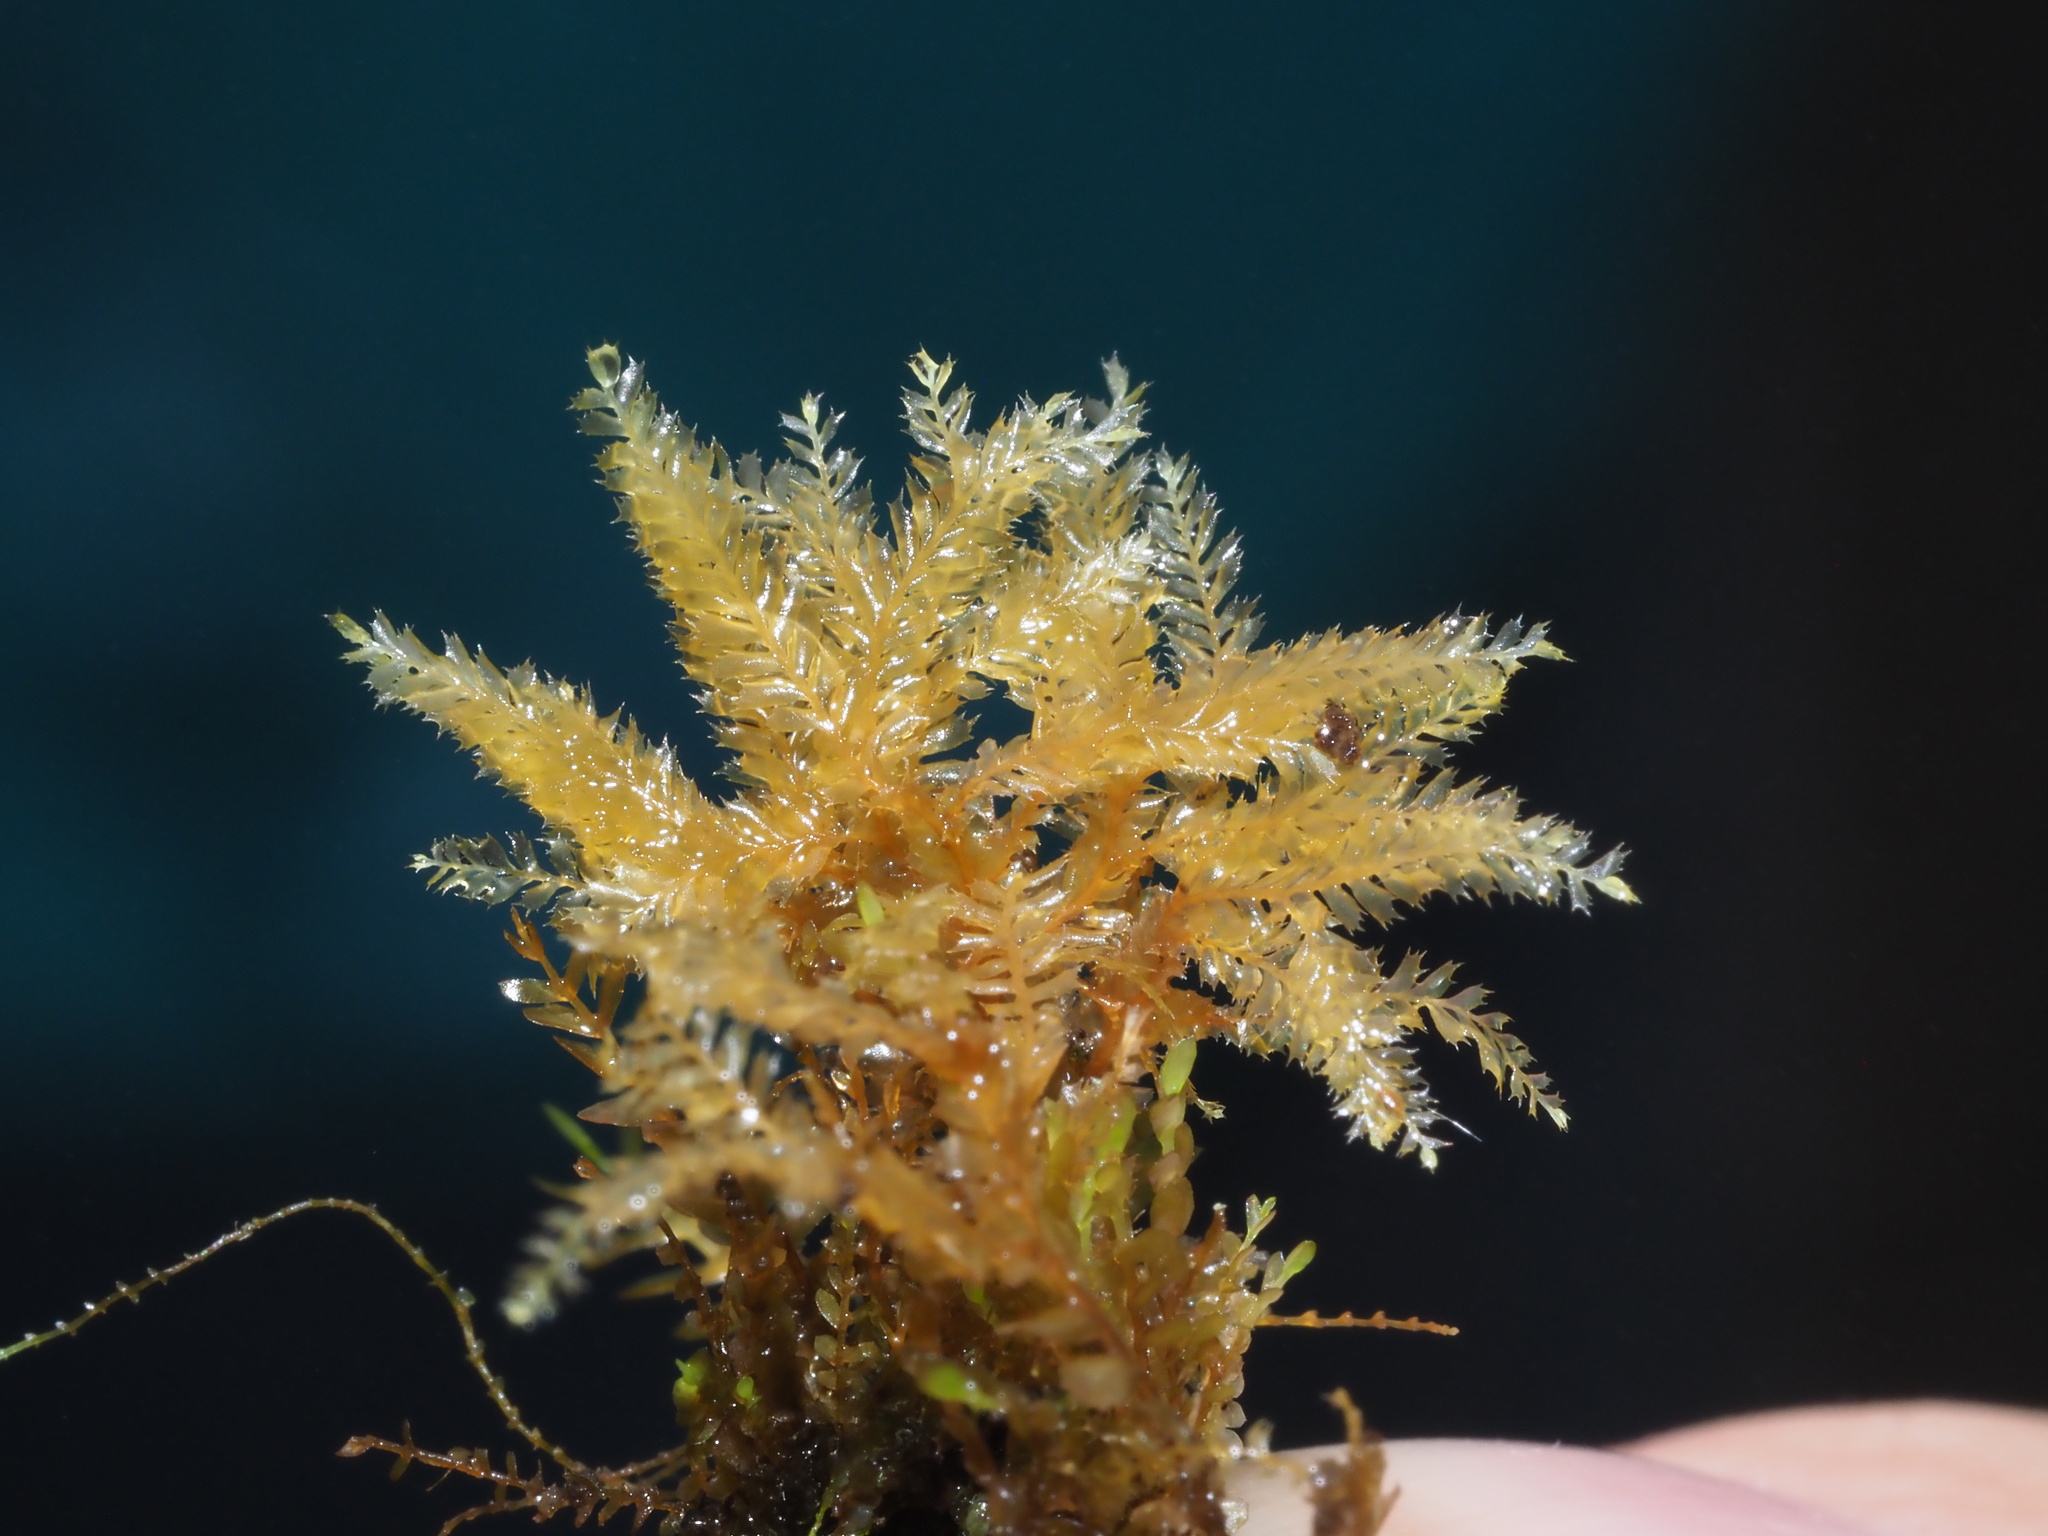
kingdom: Plantae
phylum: Marchantiophyta
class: Jungermanniopsida
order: Jungermanniales
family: Plagiochilaceae
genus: Plagiochila
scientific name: Plagiochila mauiensis
